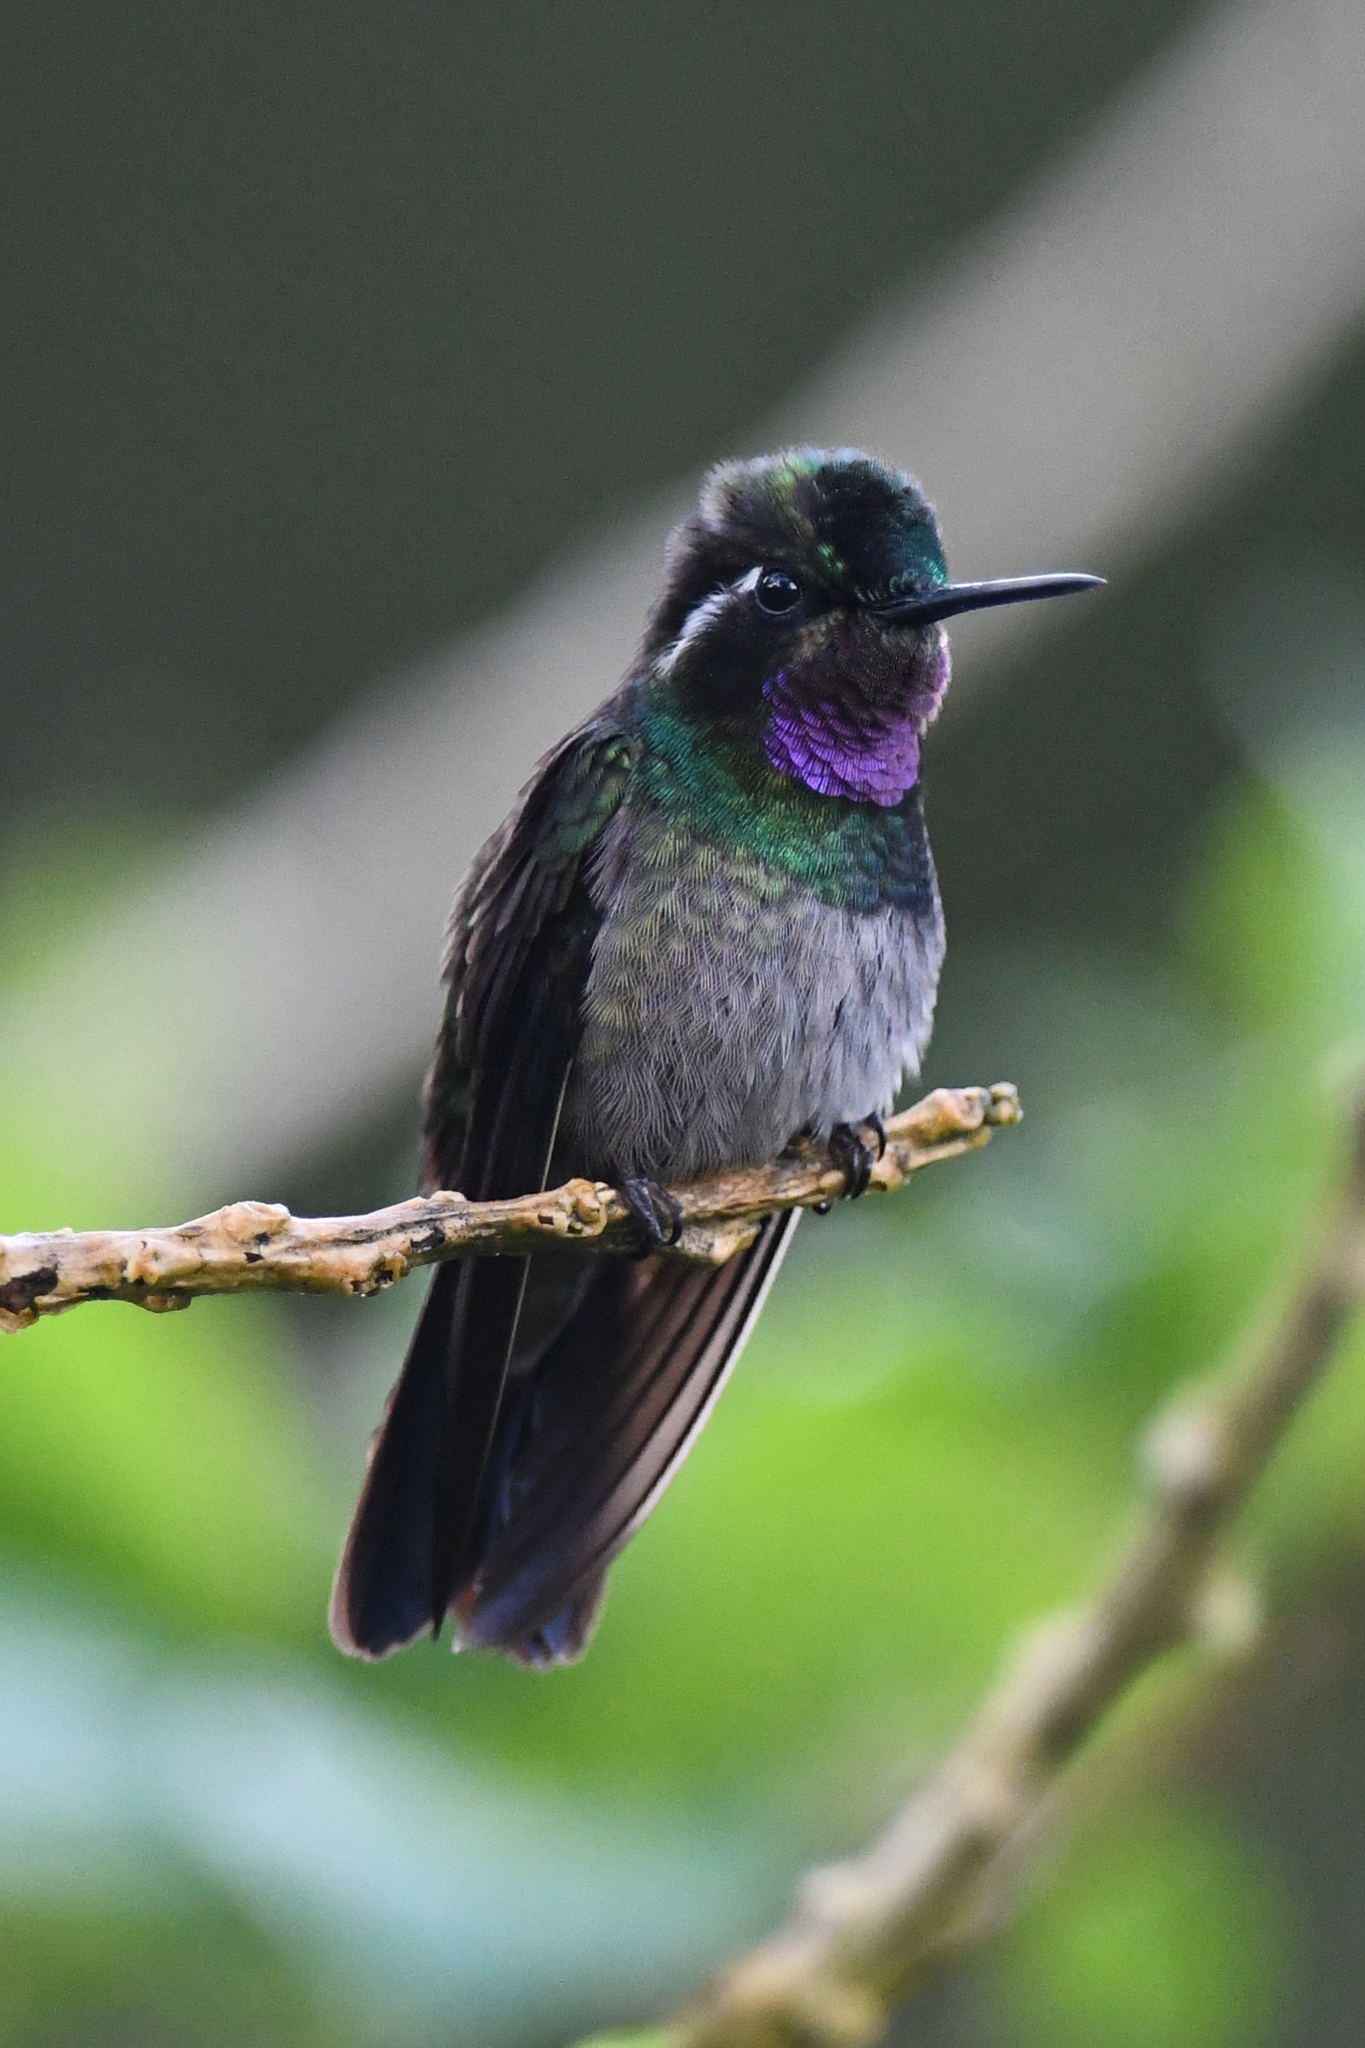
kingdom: Animalia
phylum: Chordata
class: Aves
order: Apodiformes
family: Trochilidae
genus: Lampornis
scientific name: Lampornis calolaemus
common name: Purple-throated mountain-gem
